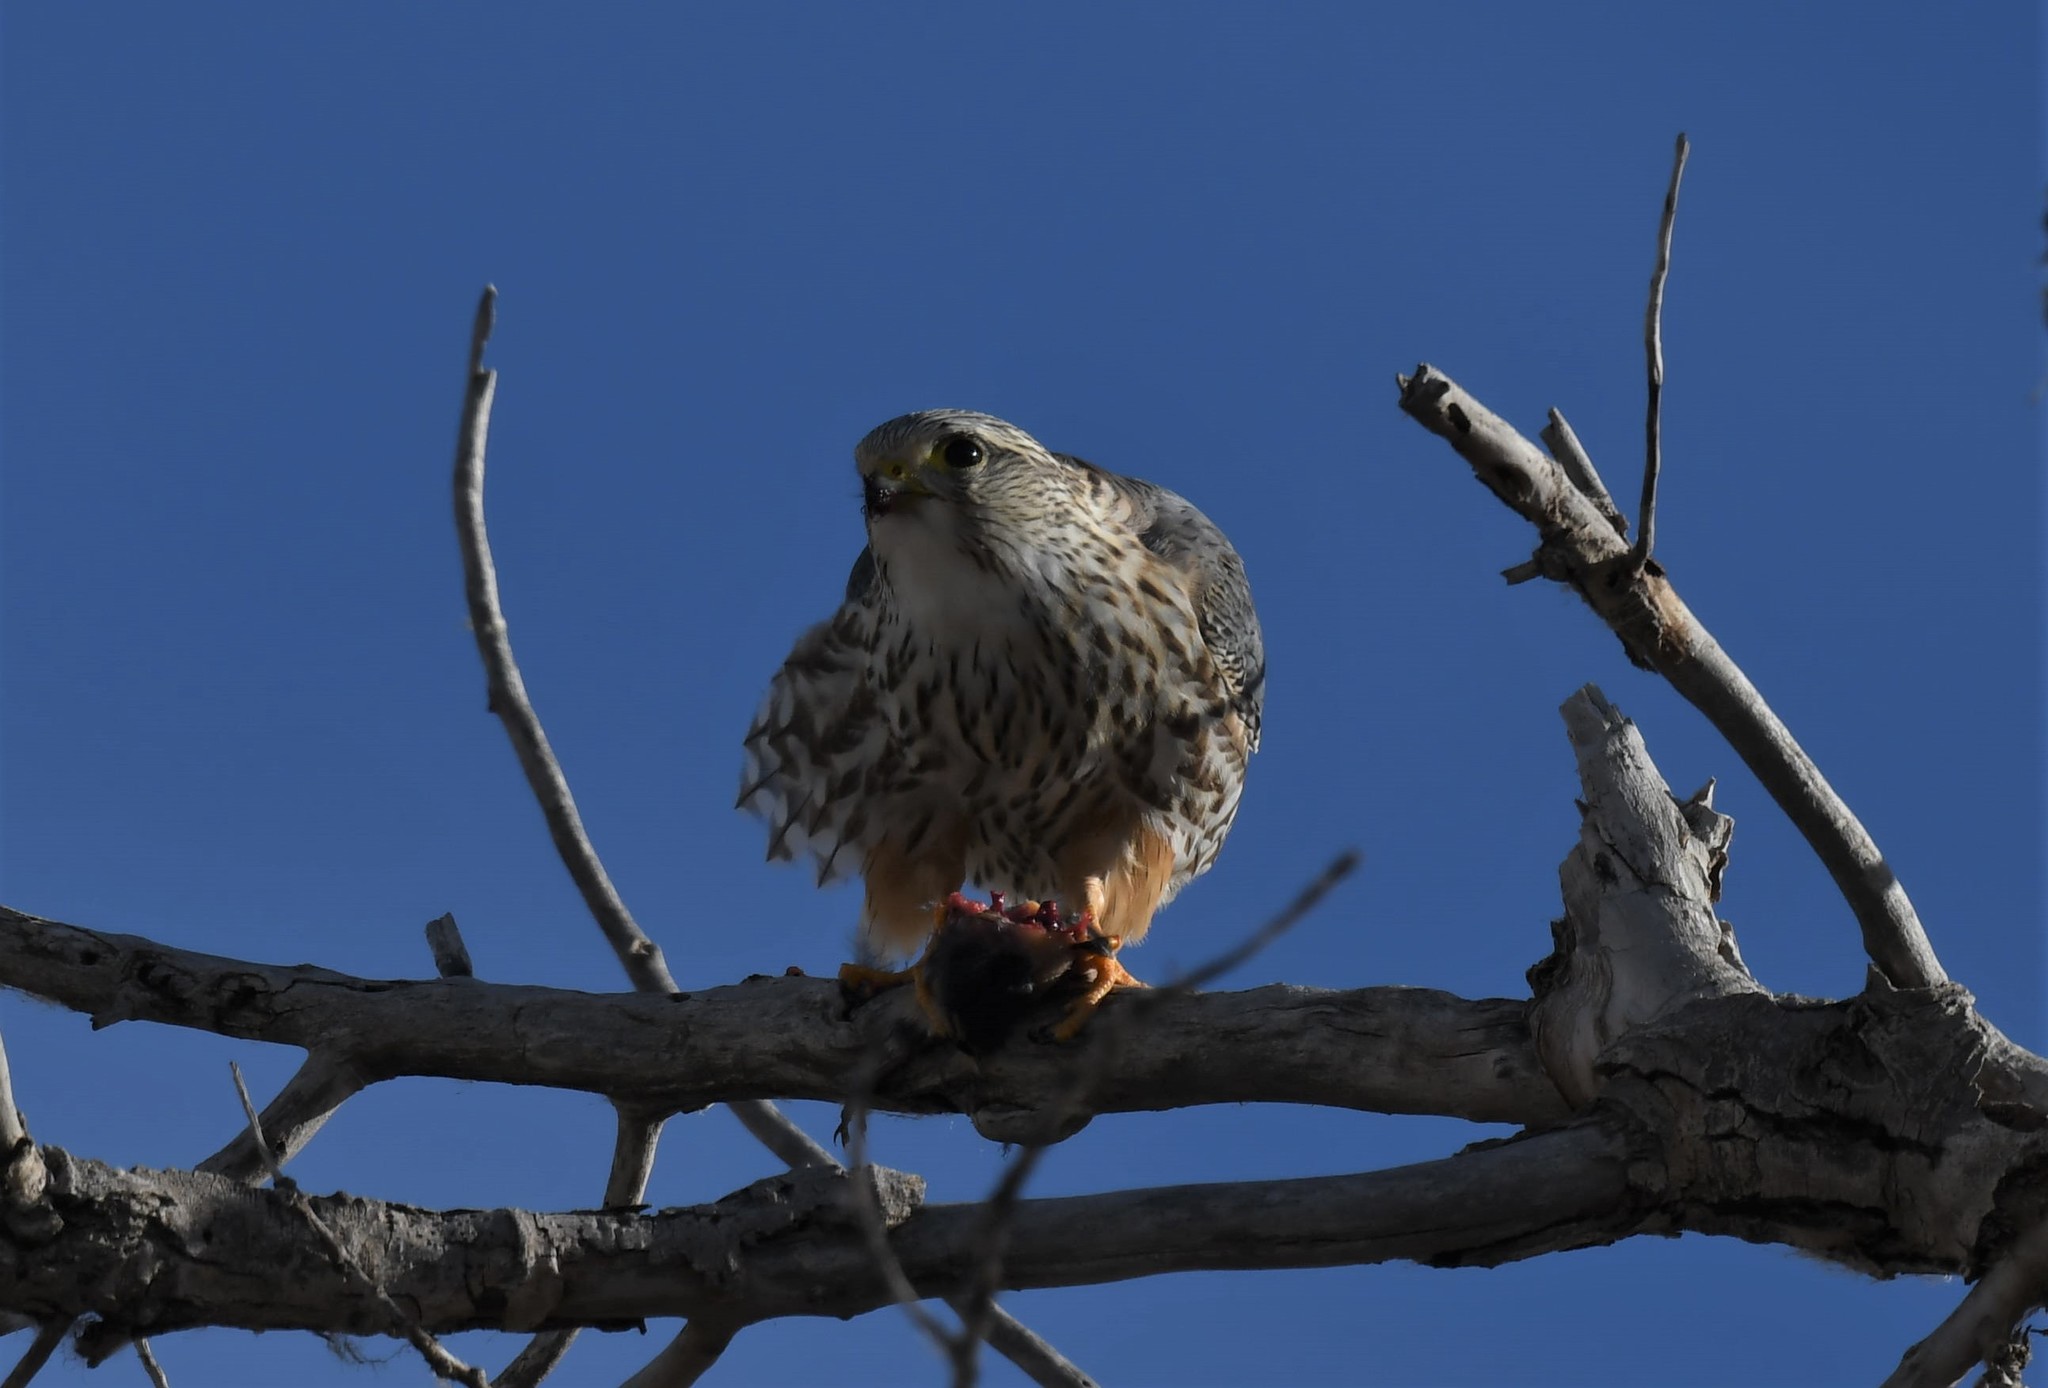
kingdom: Animalia
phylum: Chordata
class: Aves
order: Falconiformes
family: Falconidae
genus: Falco
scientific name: Falco columbarius
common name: Merlin
